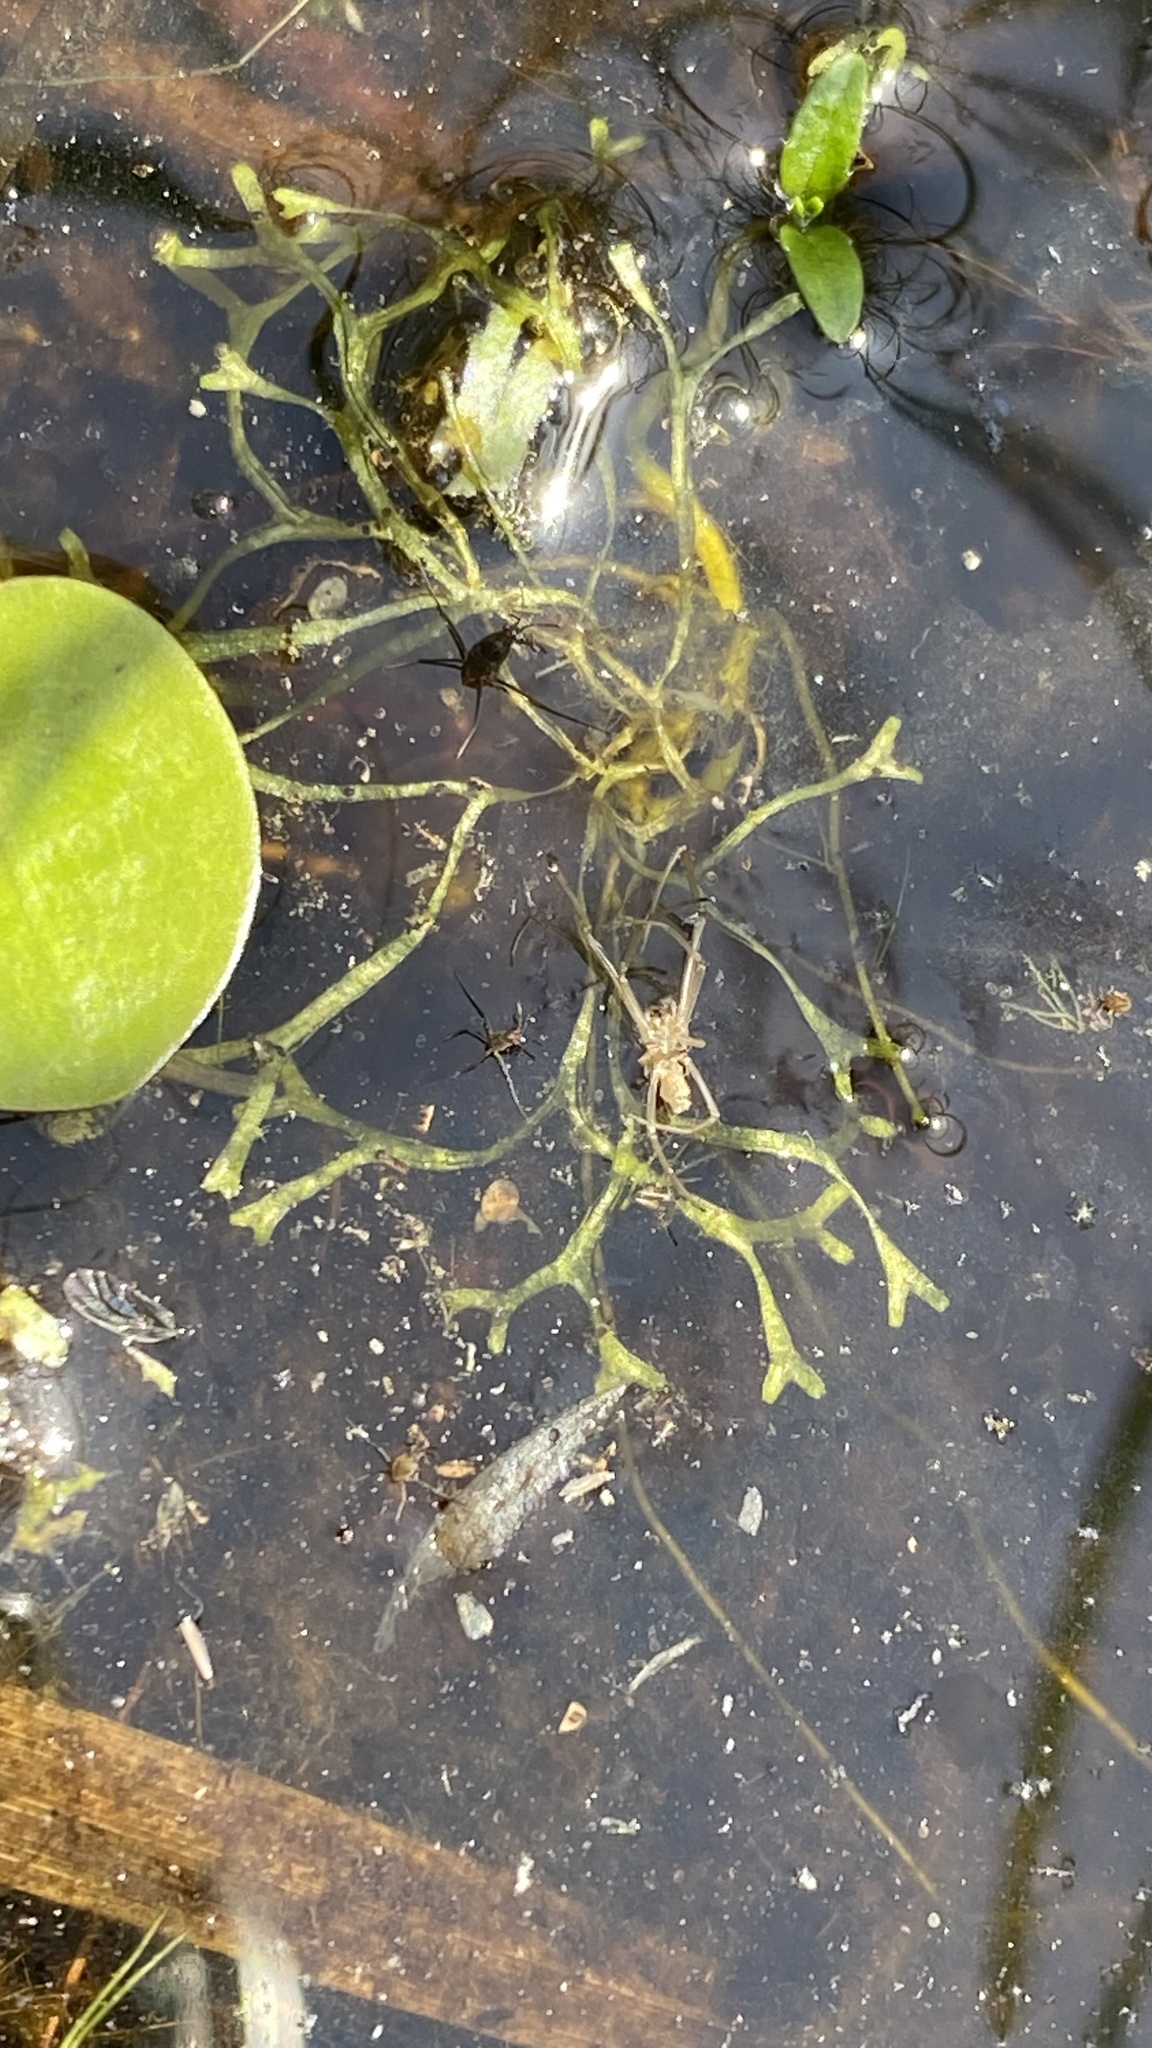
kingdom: Plantae
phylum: Marchantiophyta
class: Marchantiopsida
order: Marchantiales
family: Ricciaceae
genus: Riccia
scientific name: Riccia fluitans
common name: Floating crystalwort
